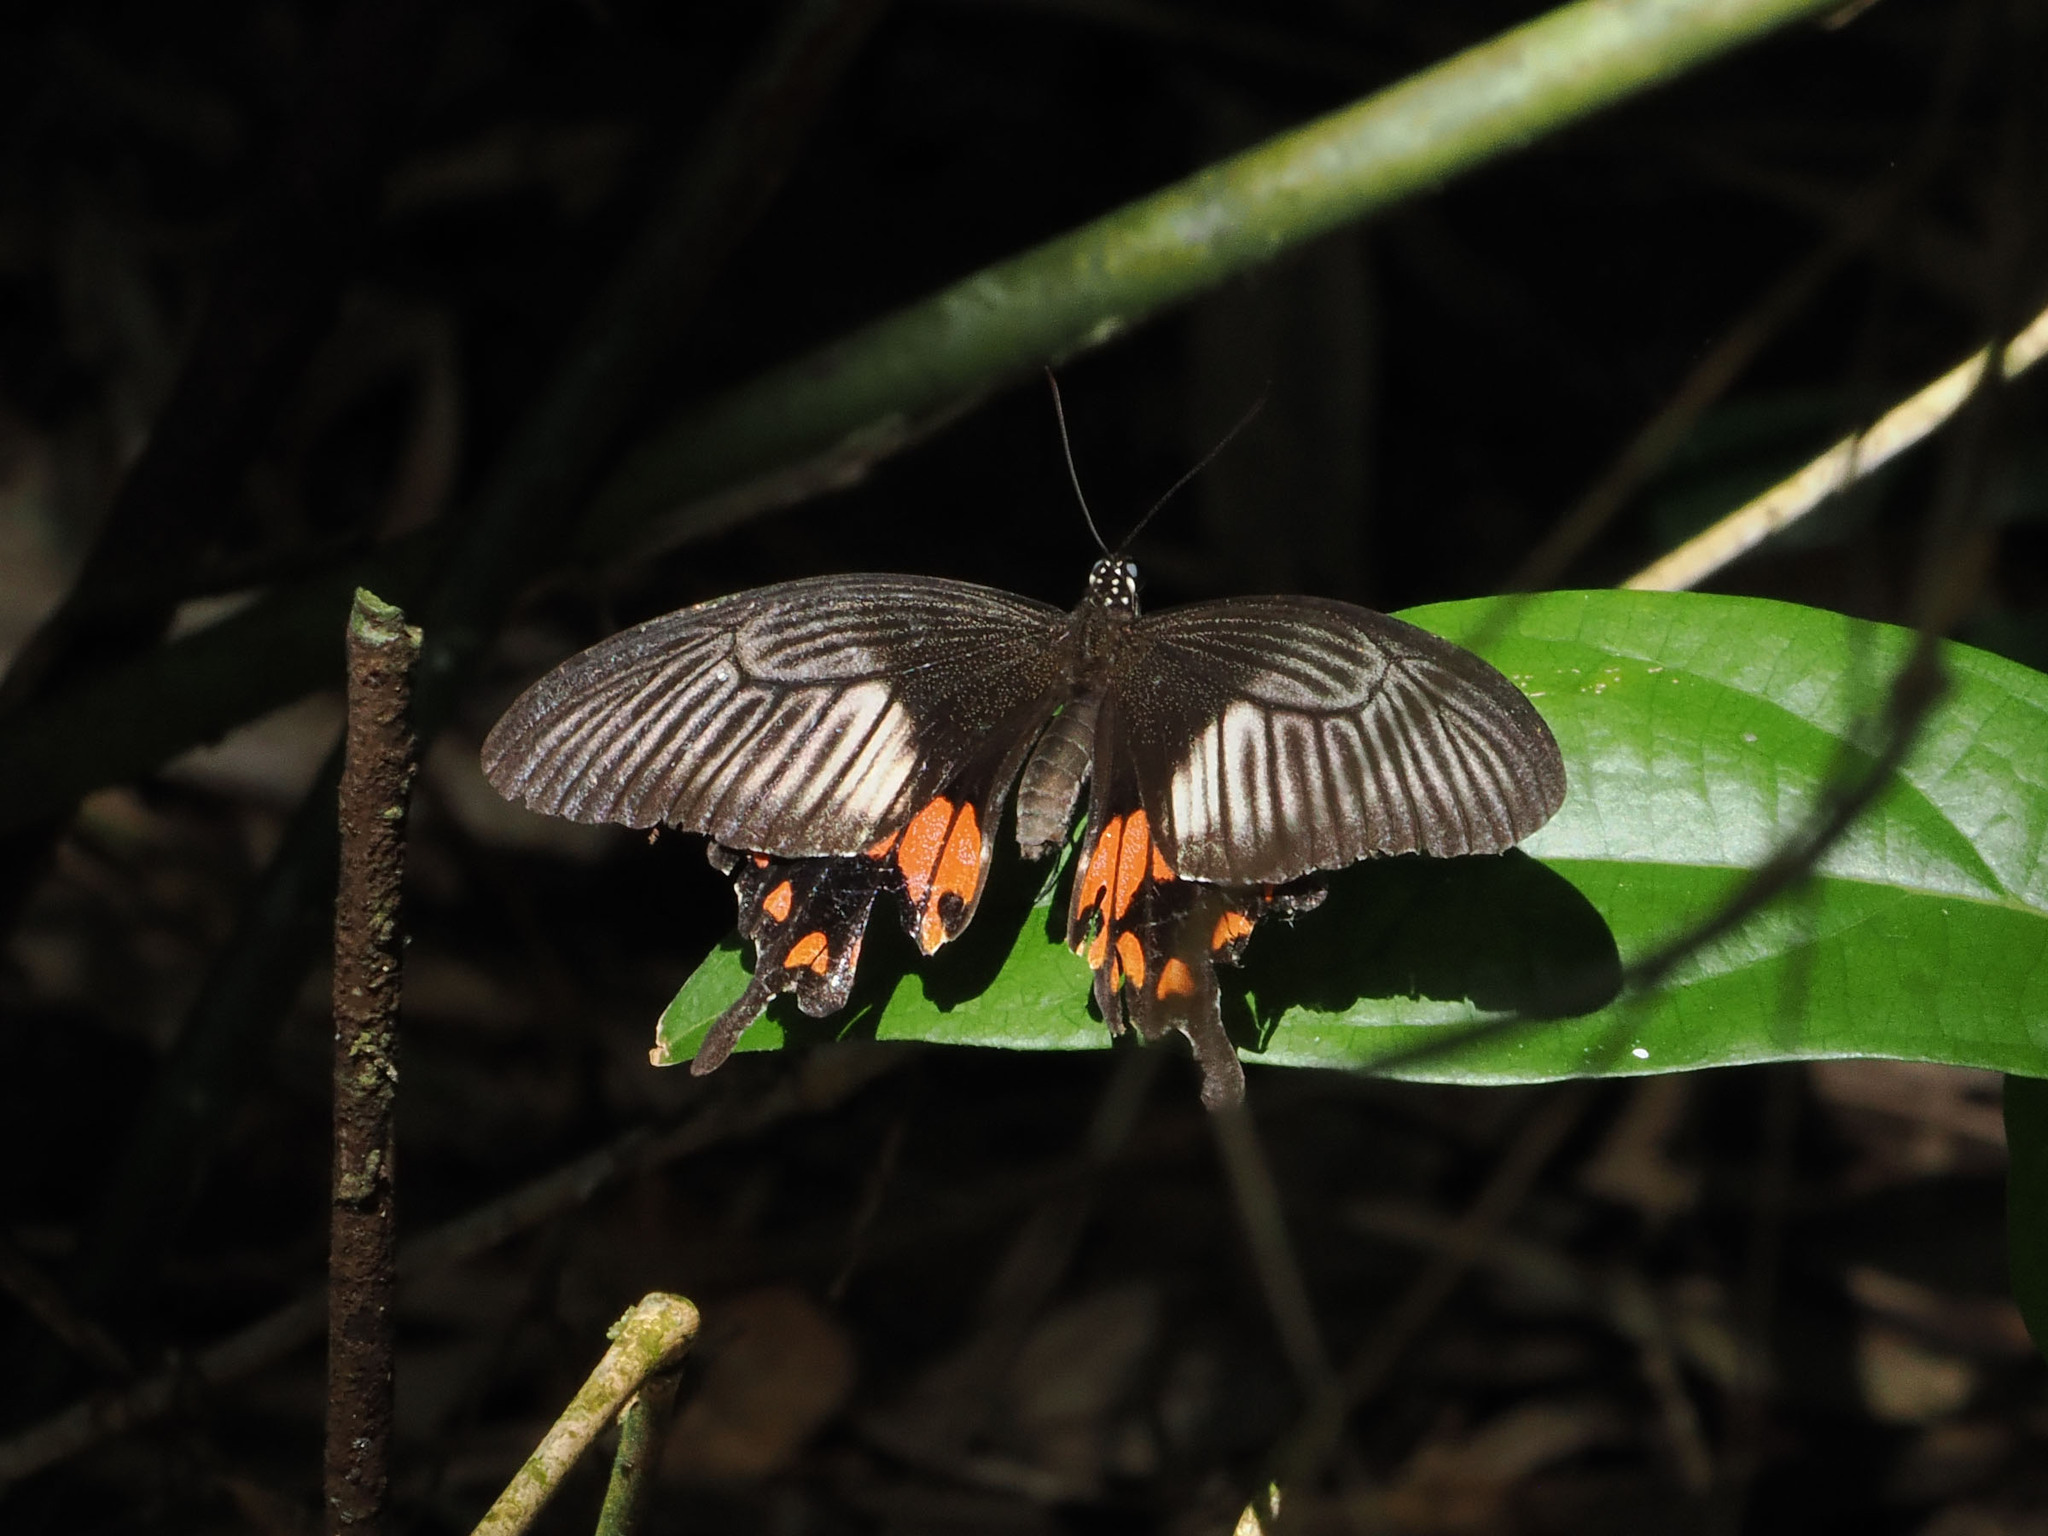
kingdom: Animalia
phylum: Arthropoda
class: Insecta
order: Lepidoptera
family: Papilionidae
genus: Papilio
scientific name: Papilio alphenor
